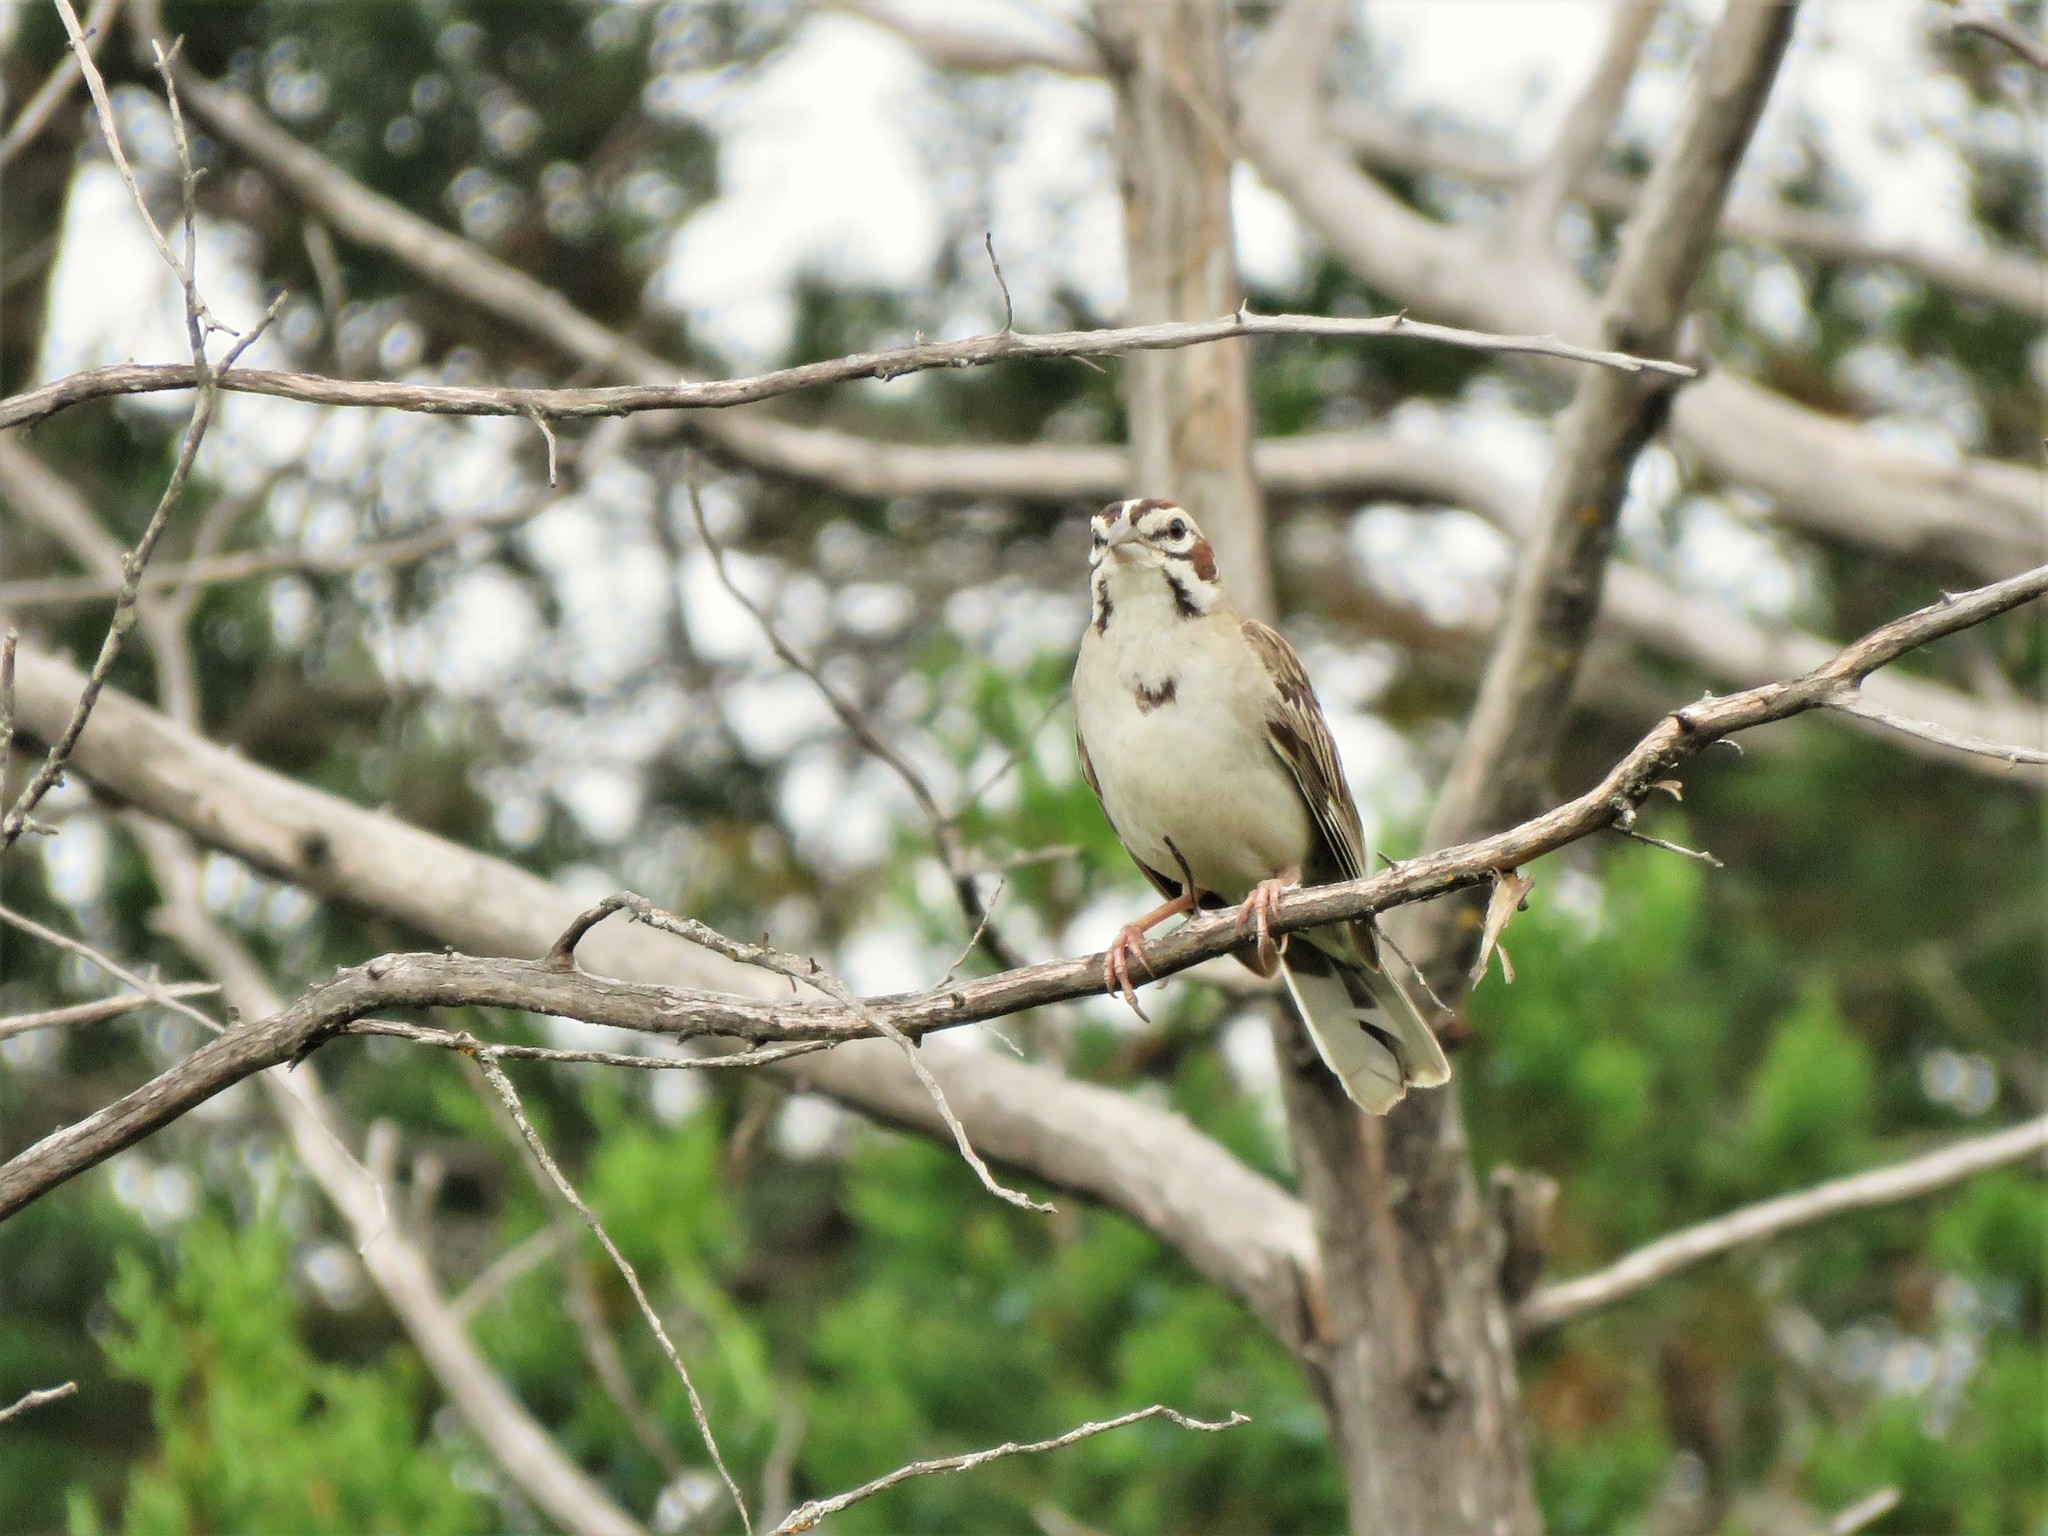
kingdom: Animalia
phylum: Chordata
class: Aves
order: Passeriformes
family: Passerellidae
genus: Chondestes
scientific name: Chondestes grammacus
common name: Lark sparrow
